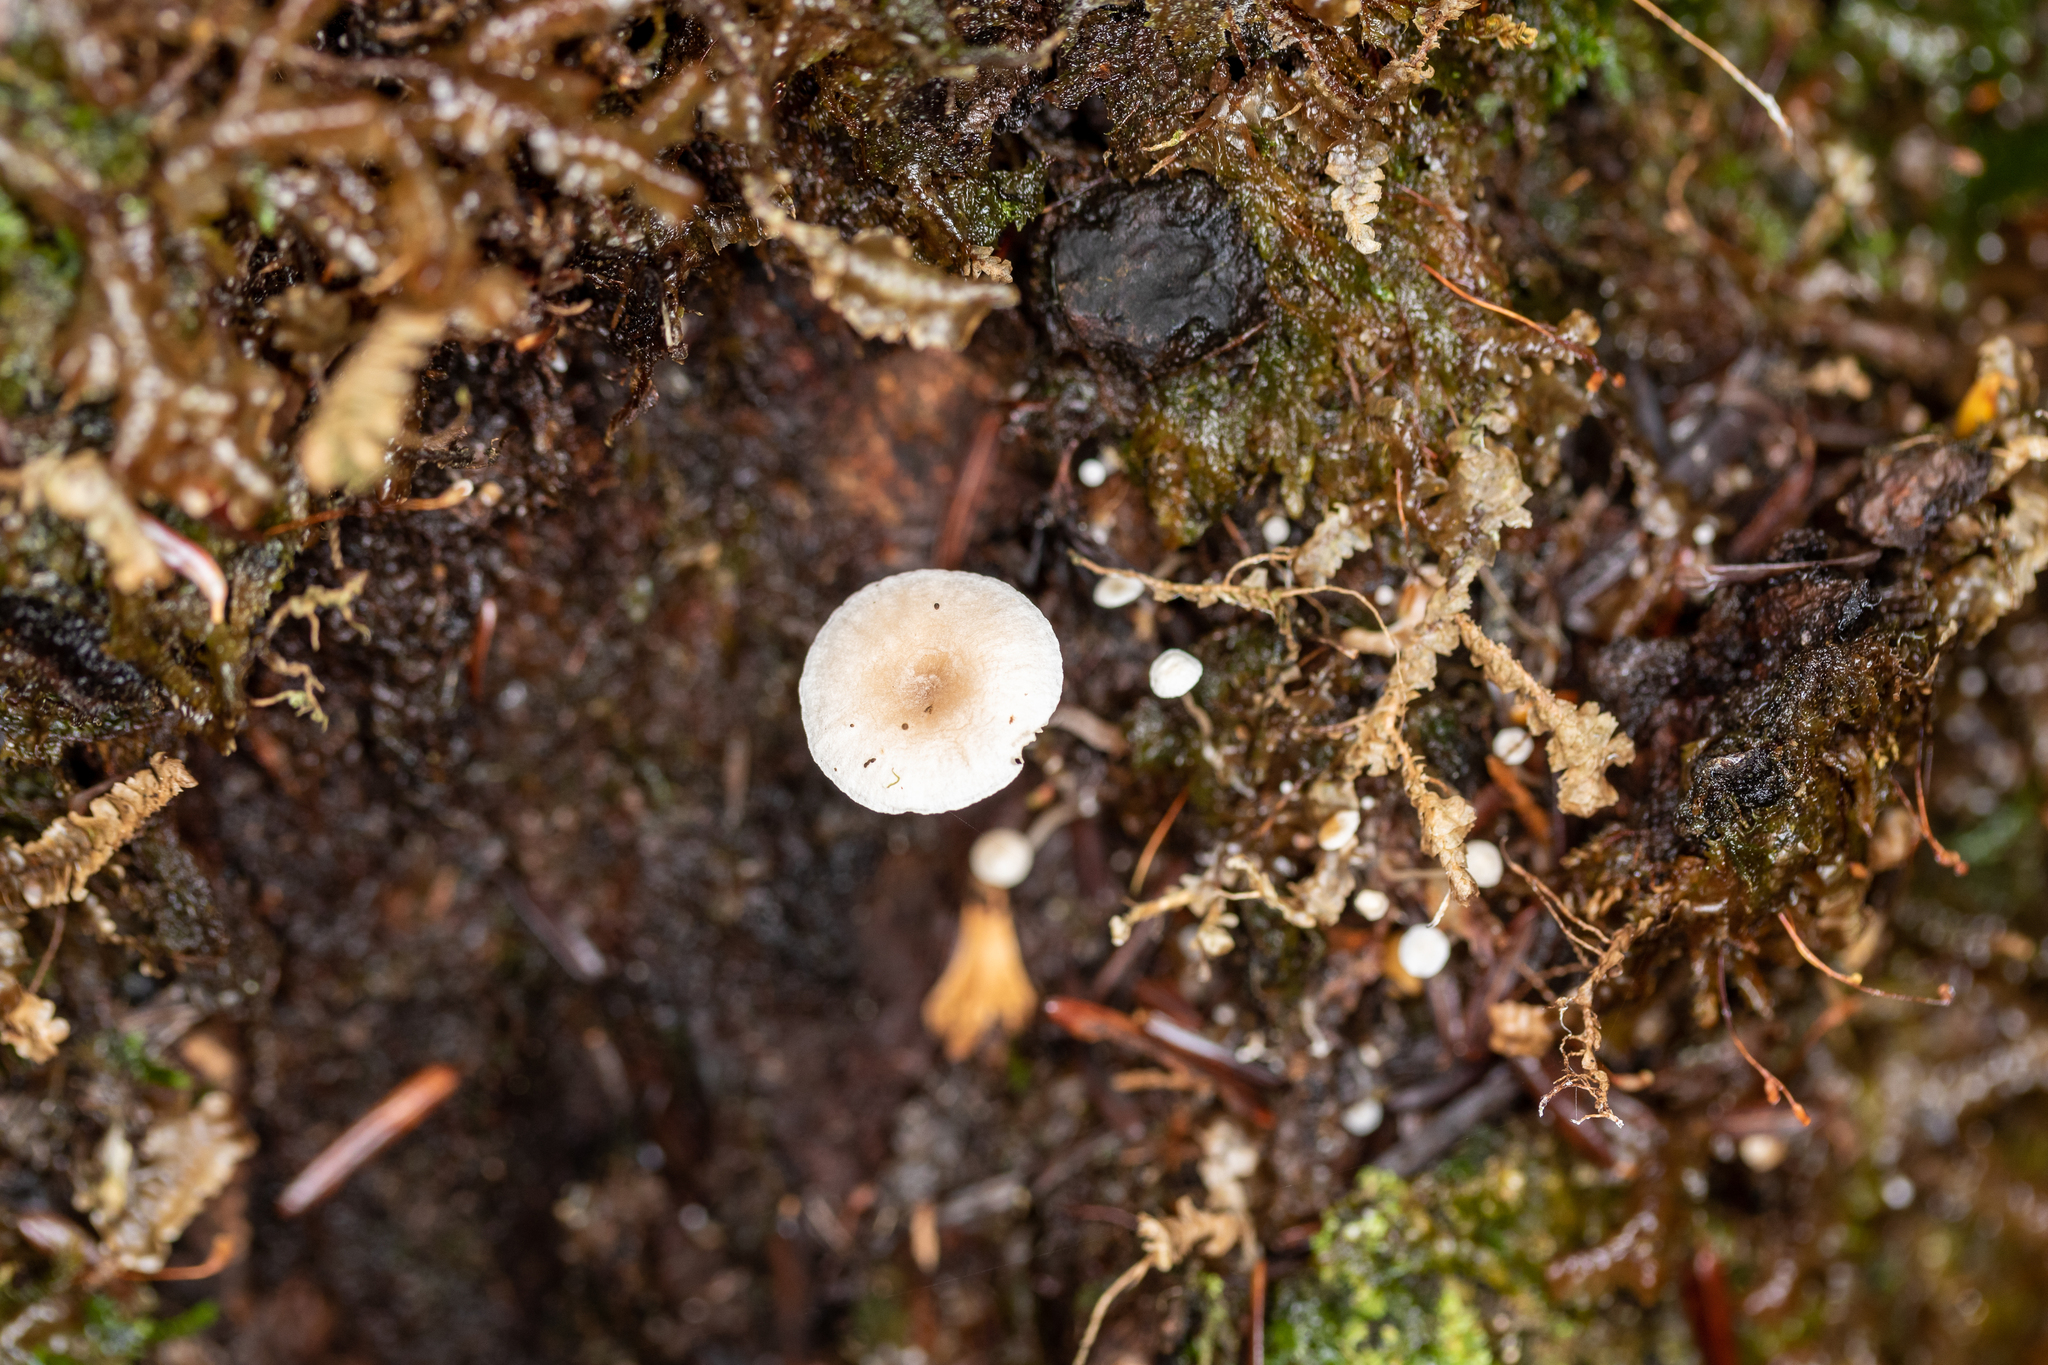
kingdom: Fungi
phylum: Basidiomycota
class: Agaricomycetes
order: Agaricales
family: Omphalotaceae
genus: Marasmiellus
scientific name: Marasmiellus praeacutus
